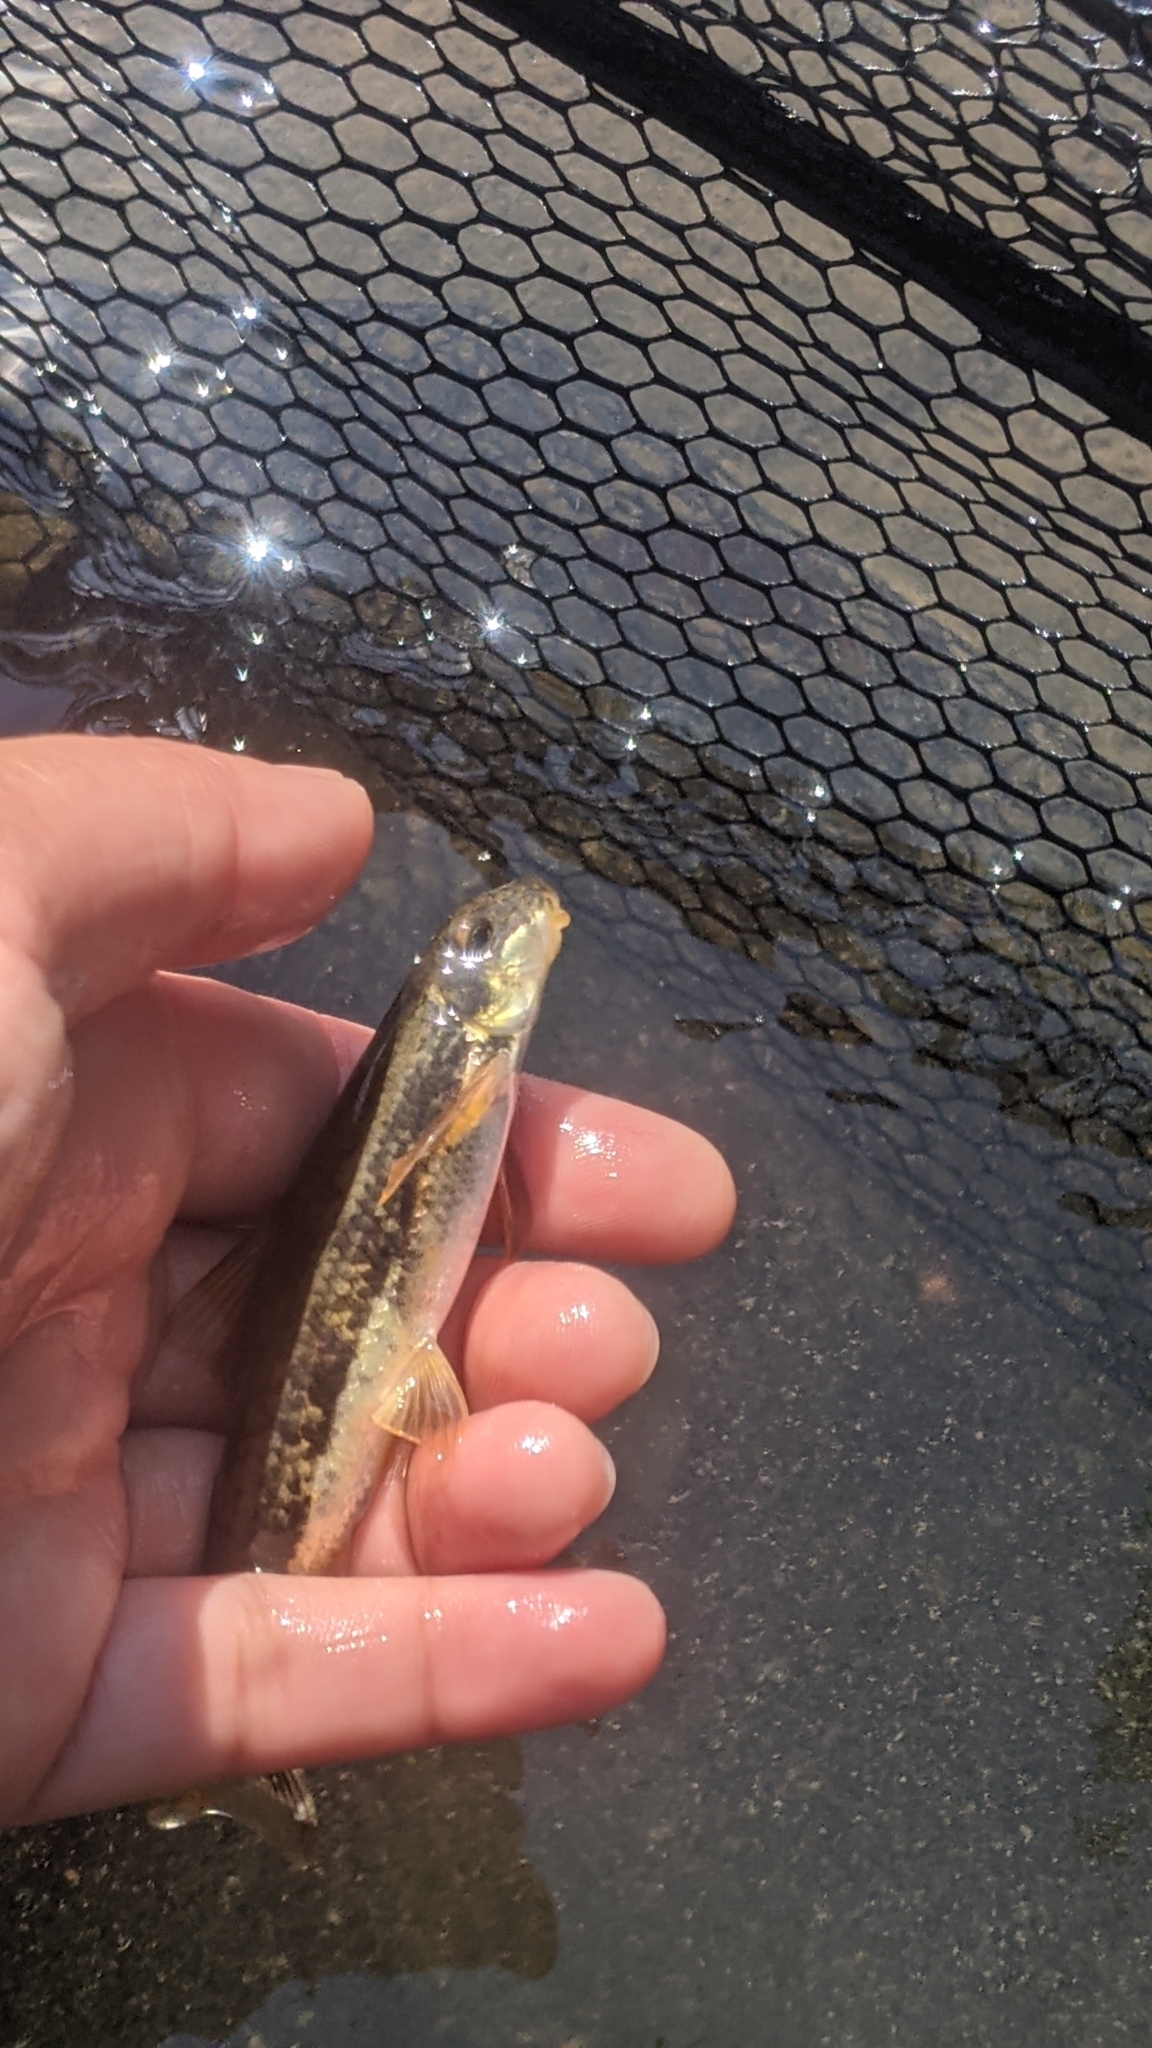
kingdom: Animalia
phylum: Chordata
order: Cypriniformes
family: Catostomidae
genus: Thoburnia
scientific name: Thoburnia rhothoeca
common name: Torrent sucker
